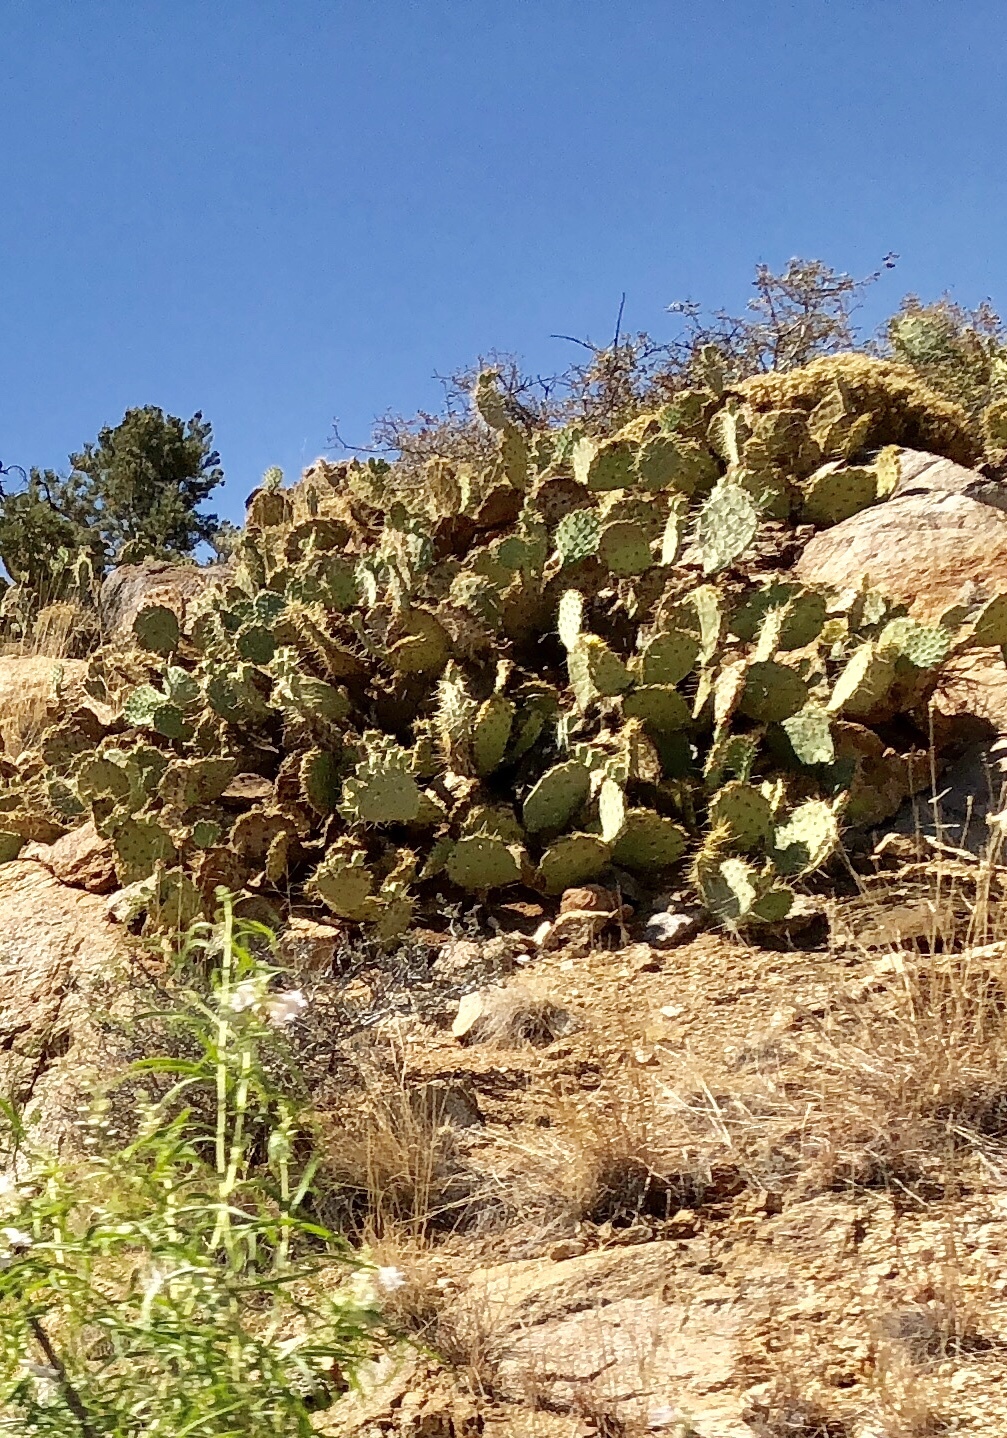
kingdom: Plantae
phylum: Tracheophyta
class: Magnoliopsida
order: Caryophyllales
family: Cactaceae
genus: Opuntia
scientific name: Opuntia phaeacantha
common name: New mexico prickly-pear
